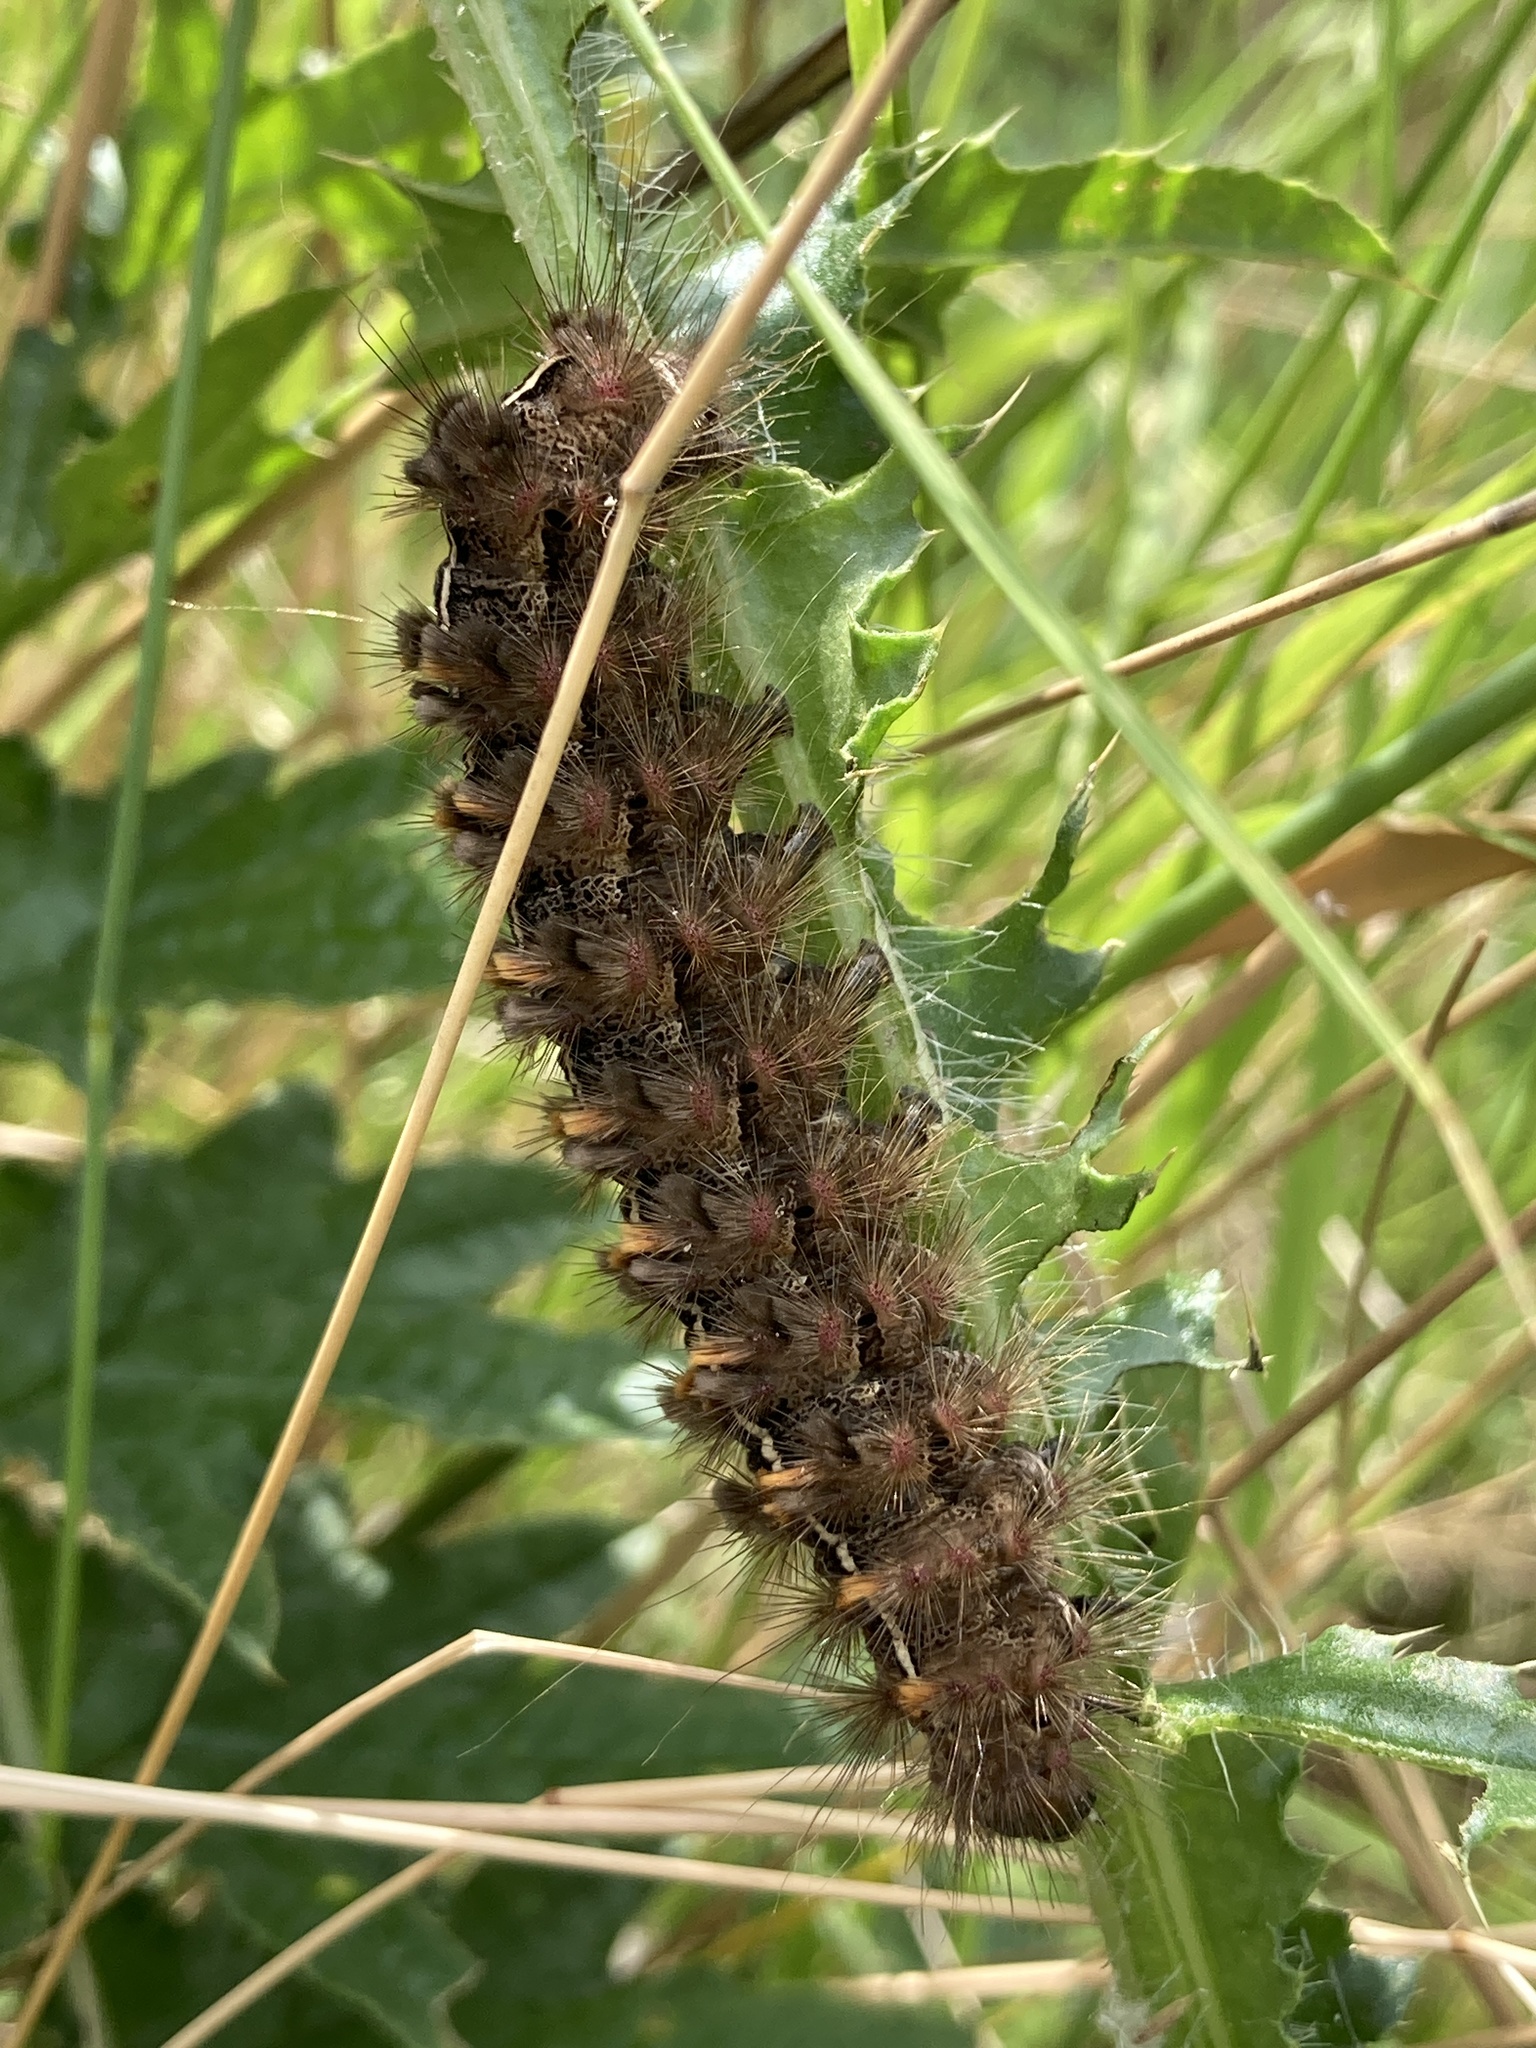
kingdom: Animalia
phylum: Arthropoda
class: Insecta
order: Lepidoptera
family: Erebidae
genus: Paracles
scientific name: Paracles fusca
